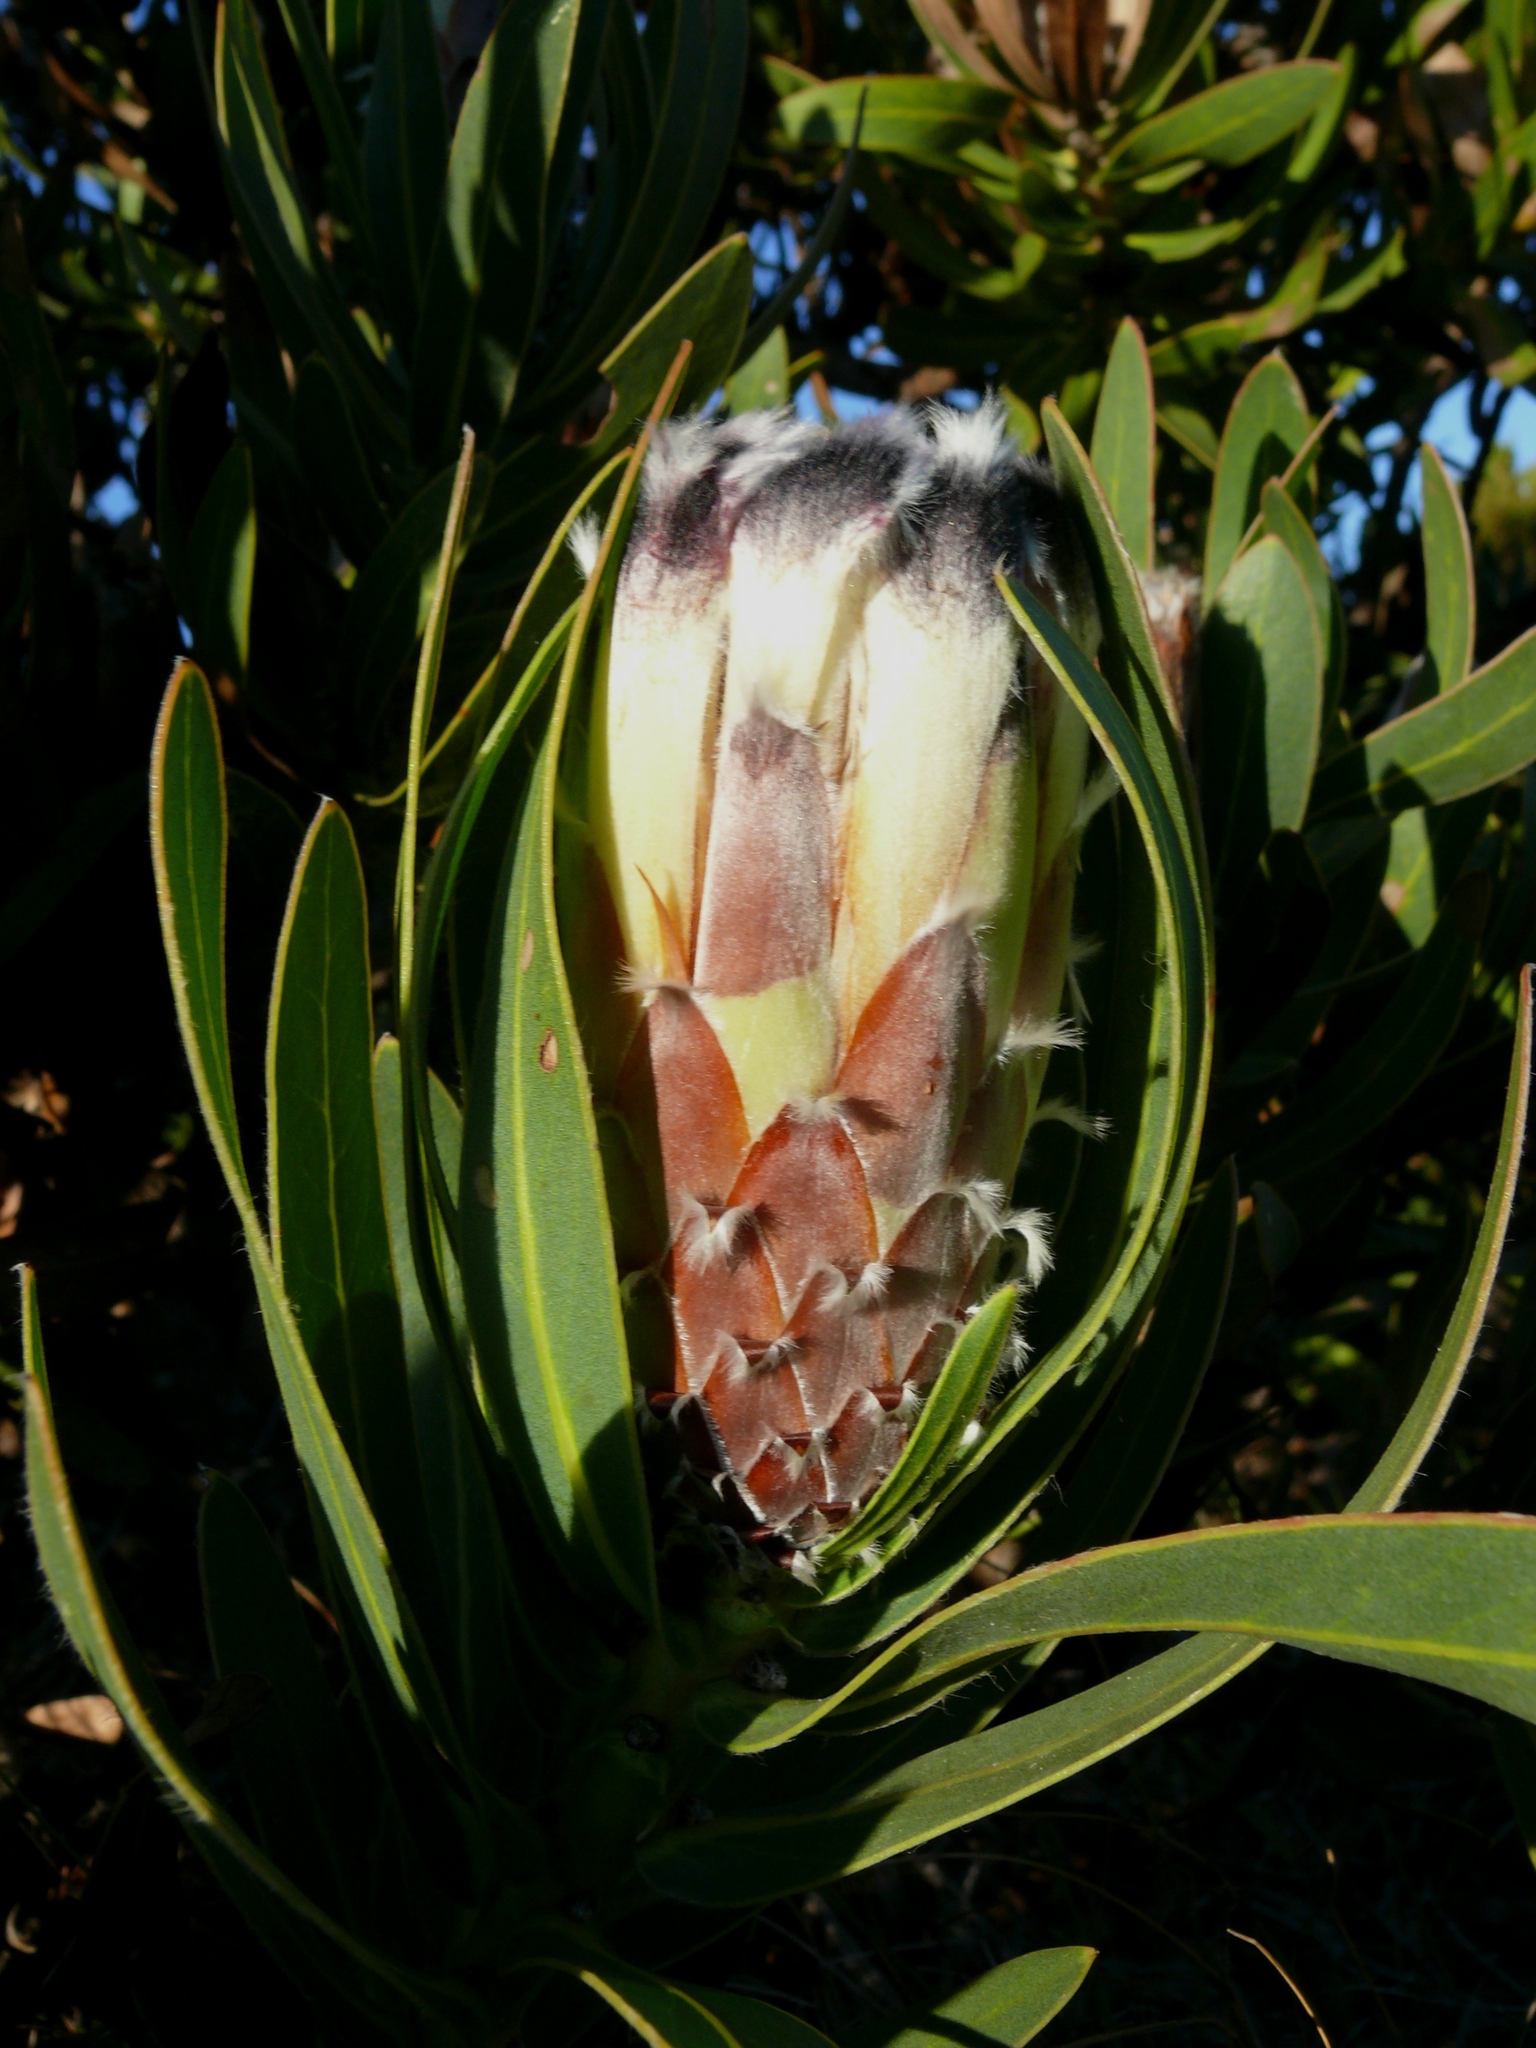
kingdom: Plantae
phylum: Tracheophyta
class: Magnoliopsida
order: Proteales
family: Proteaceae
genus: Protea
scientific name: Protea lepidocarpodendron
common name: Black-bearded protea
